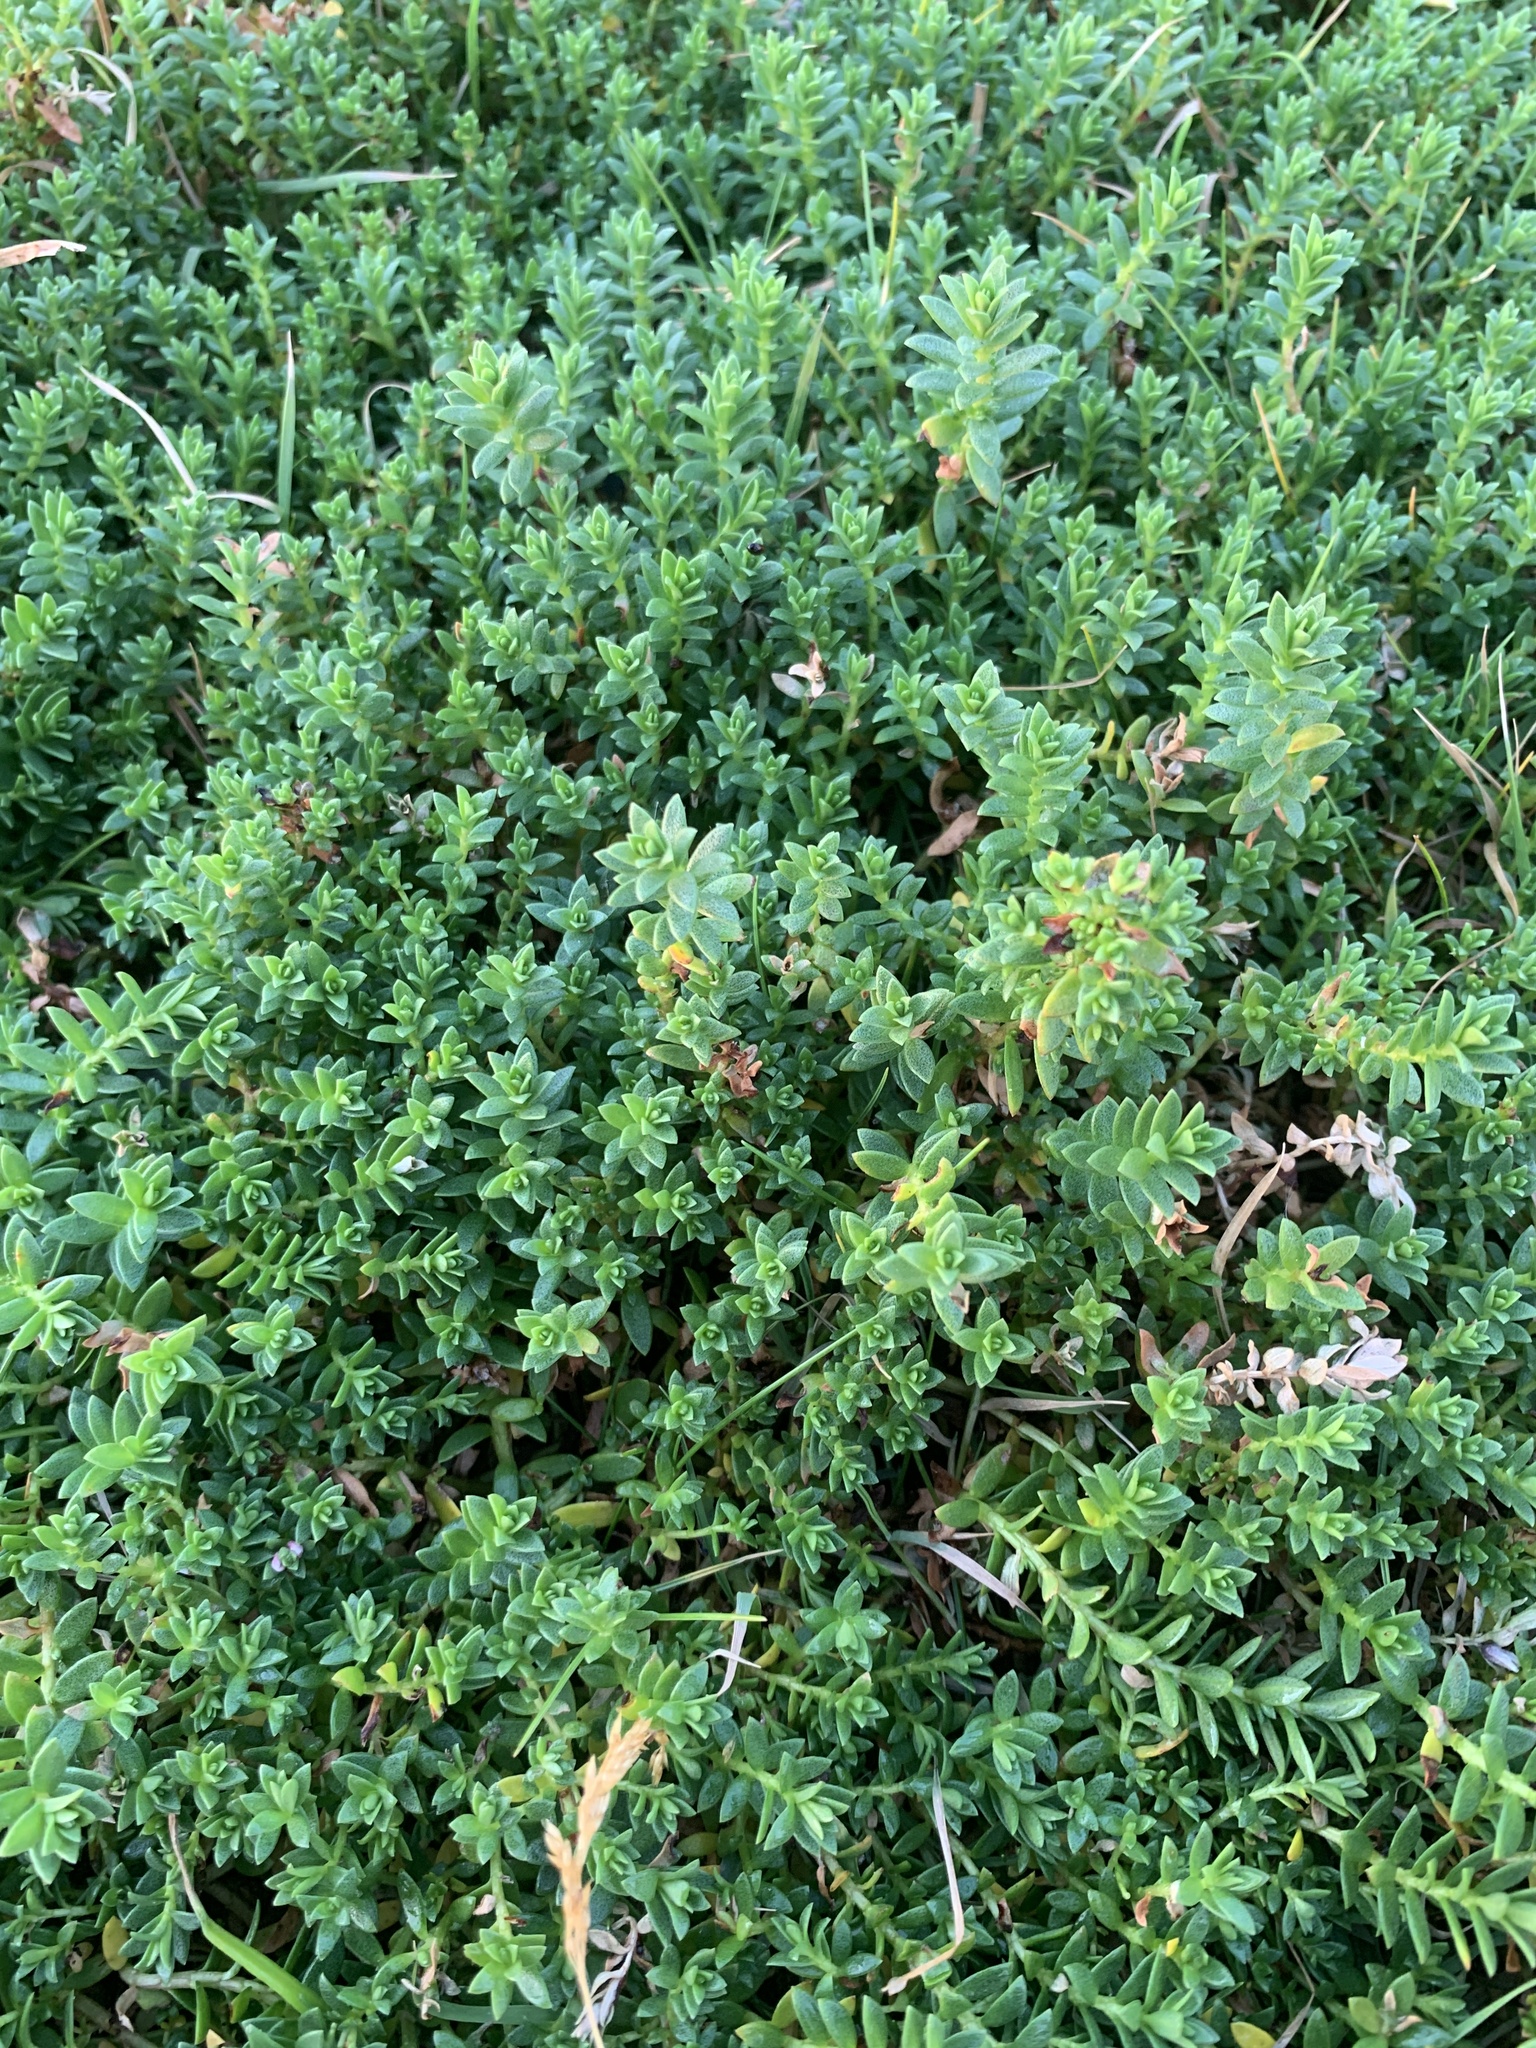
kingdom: Plantae
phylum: Tracheophyta
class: Magnoliopsida
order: Ericales
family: Primulaceae
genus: Lysimachia
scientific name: Lysimachia maritima
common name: Sea milkwort
